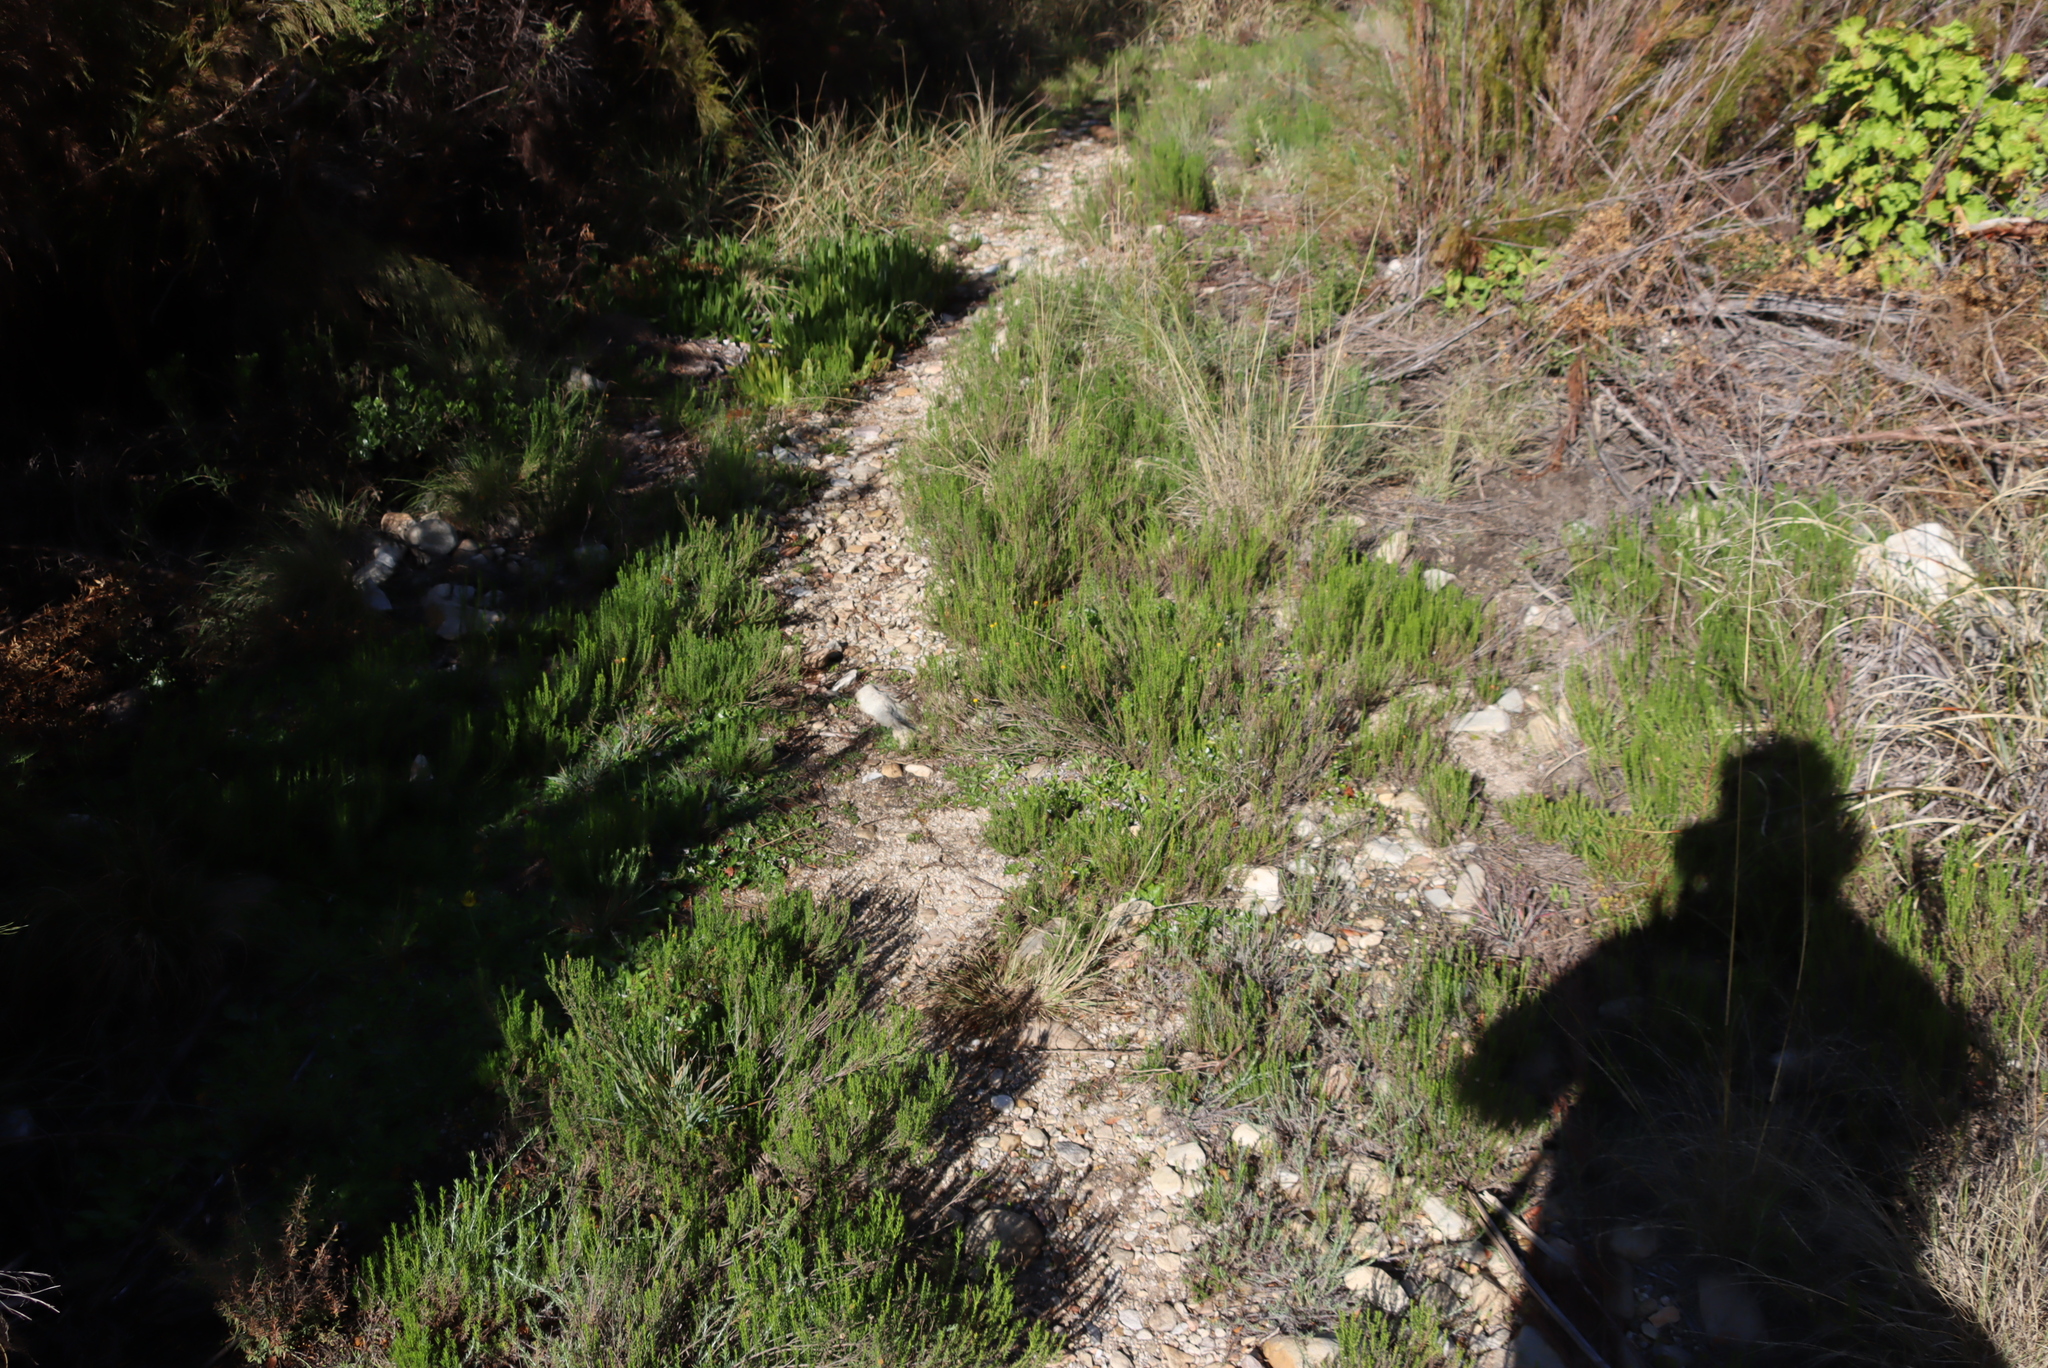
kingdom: Plantae
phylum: Tracheophyta
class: Magnoliopsida
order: Asterales
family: Asteraceae
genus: Chrysocoma
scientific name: Chrysocoma ciliata
